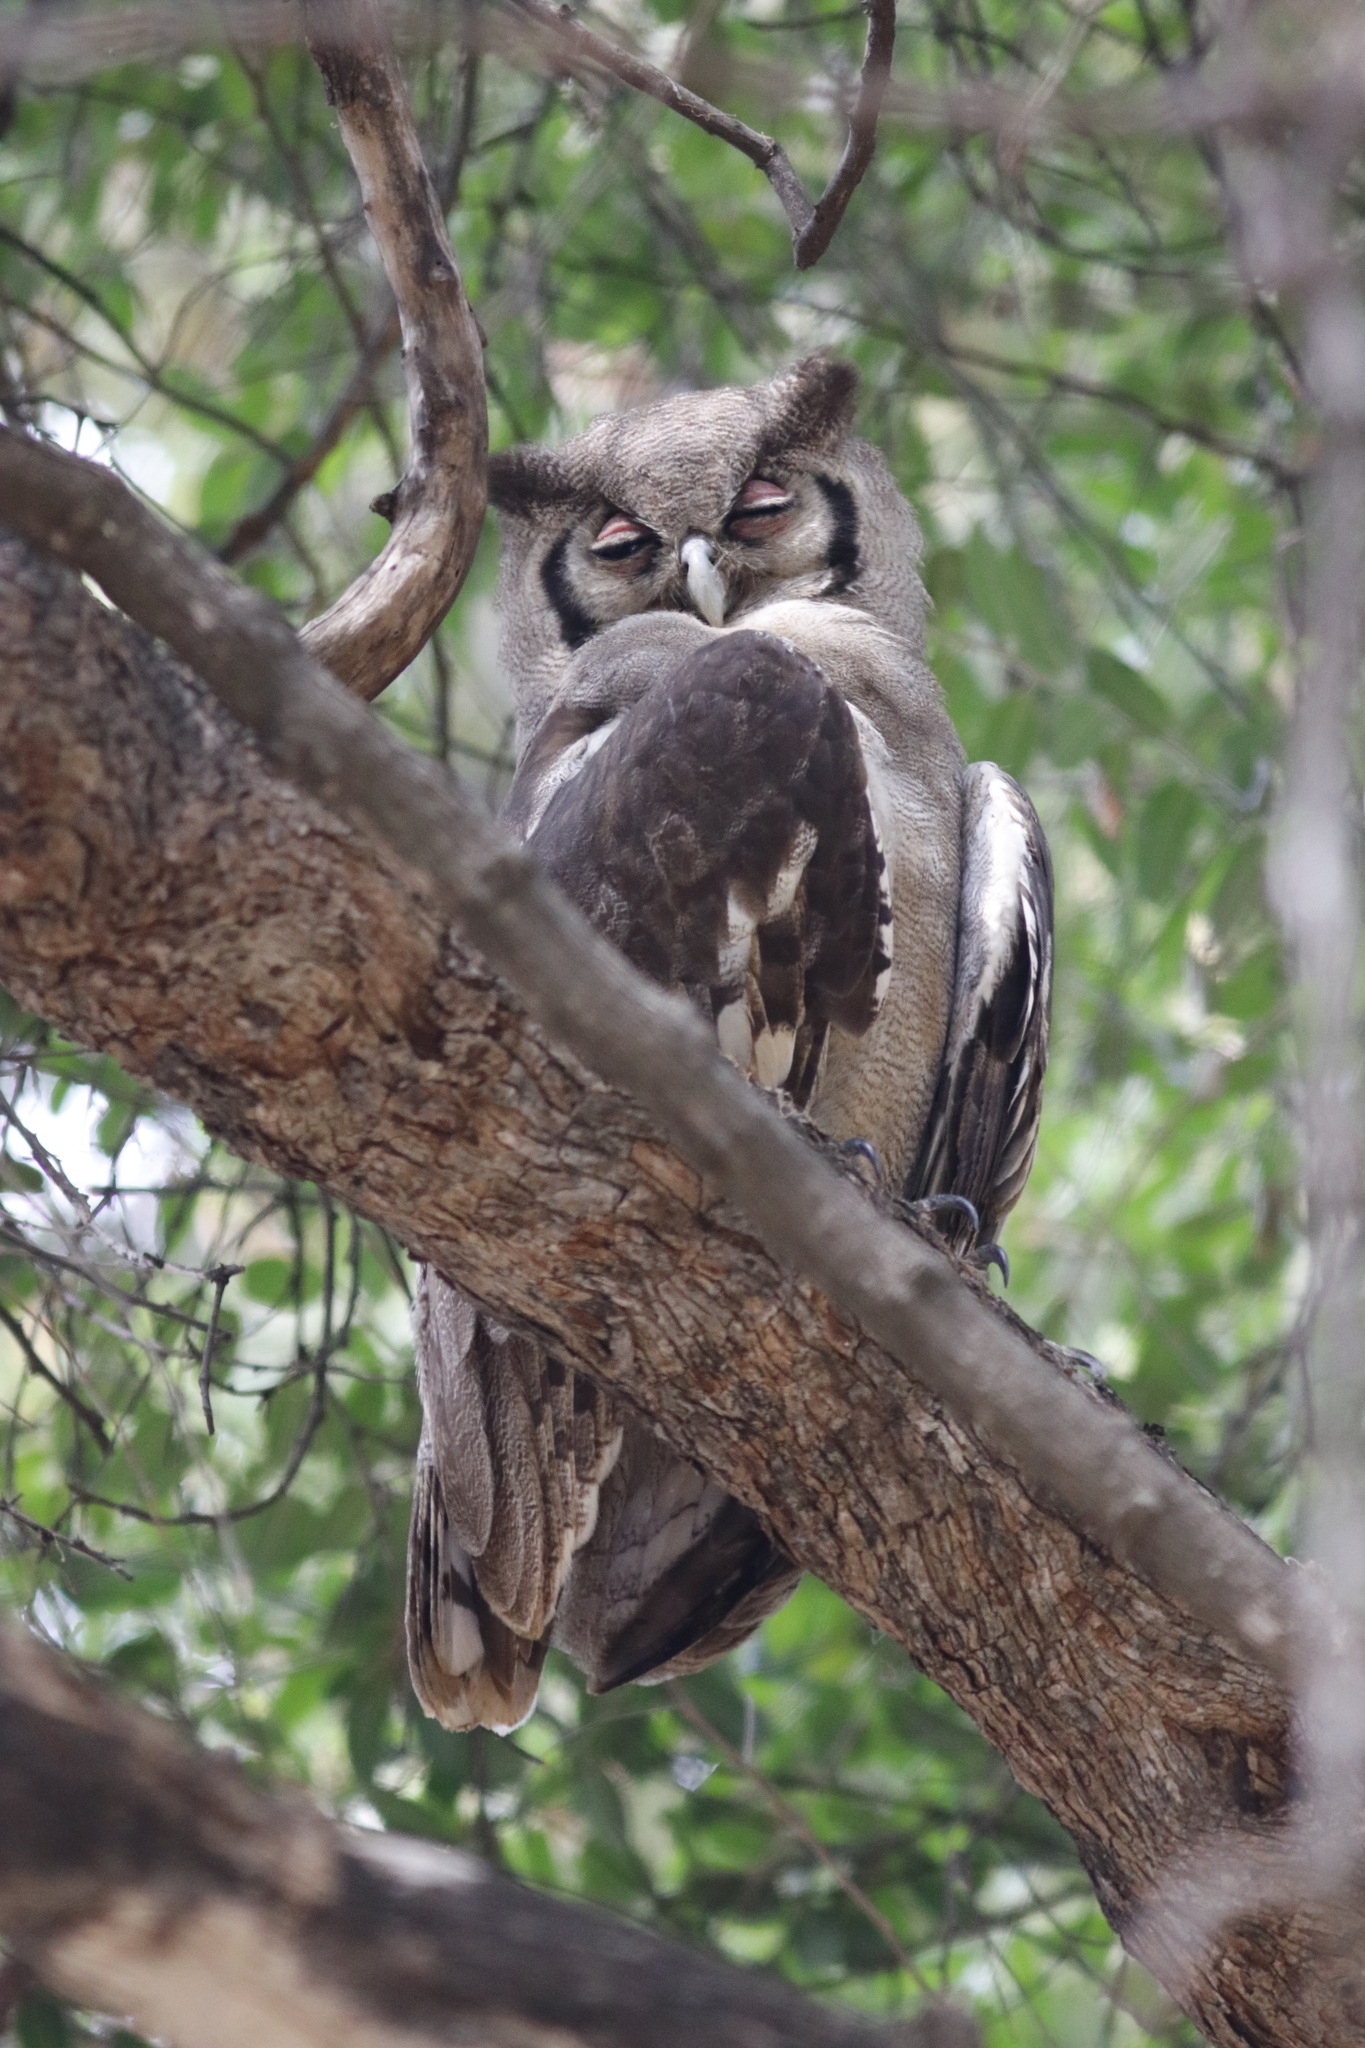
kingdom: Animalia
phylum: Chordata
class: Aves
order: Strigiformes
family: Strigidae
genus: Bubo
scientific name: Bubo lacteus
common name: Verreaux's eagle-owl
